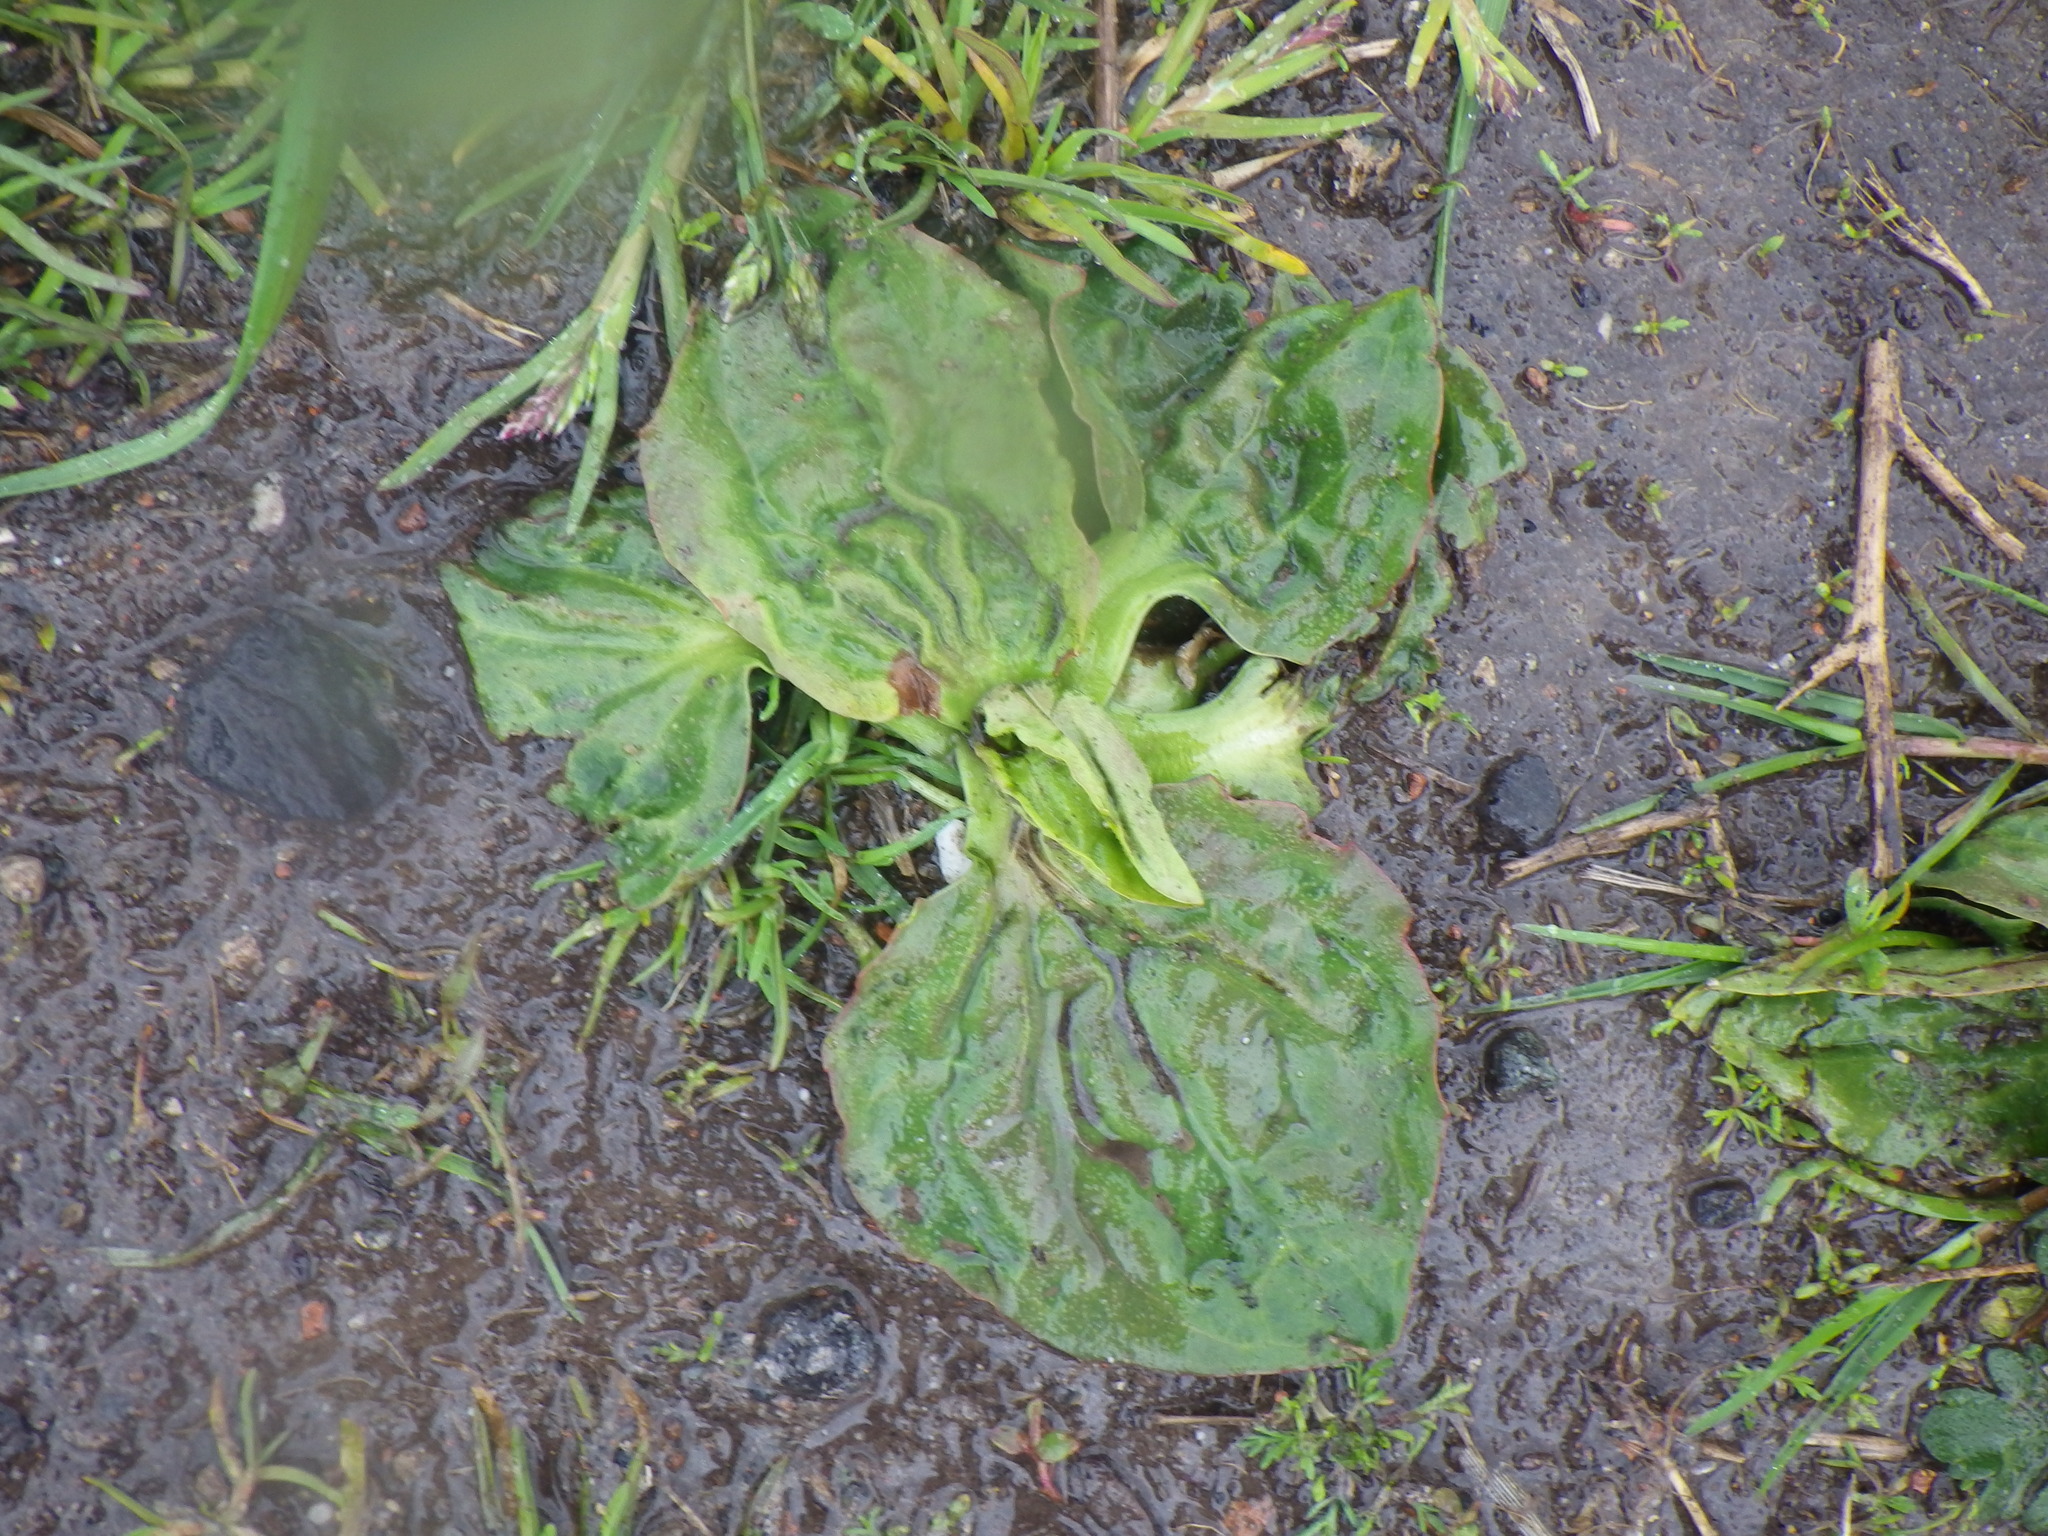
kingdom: Plantae
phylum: Tracheophyta
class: Magnoliopsida
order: Lamiales
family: Plantaginaceae
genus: Plantago
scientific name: Plantago major
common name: Common plantain
